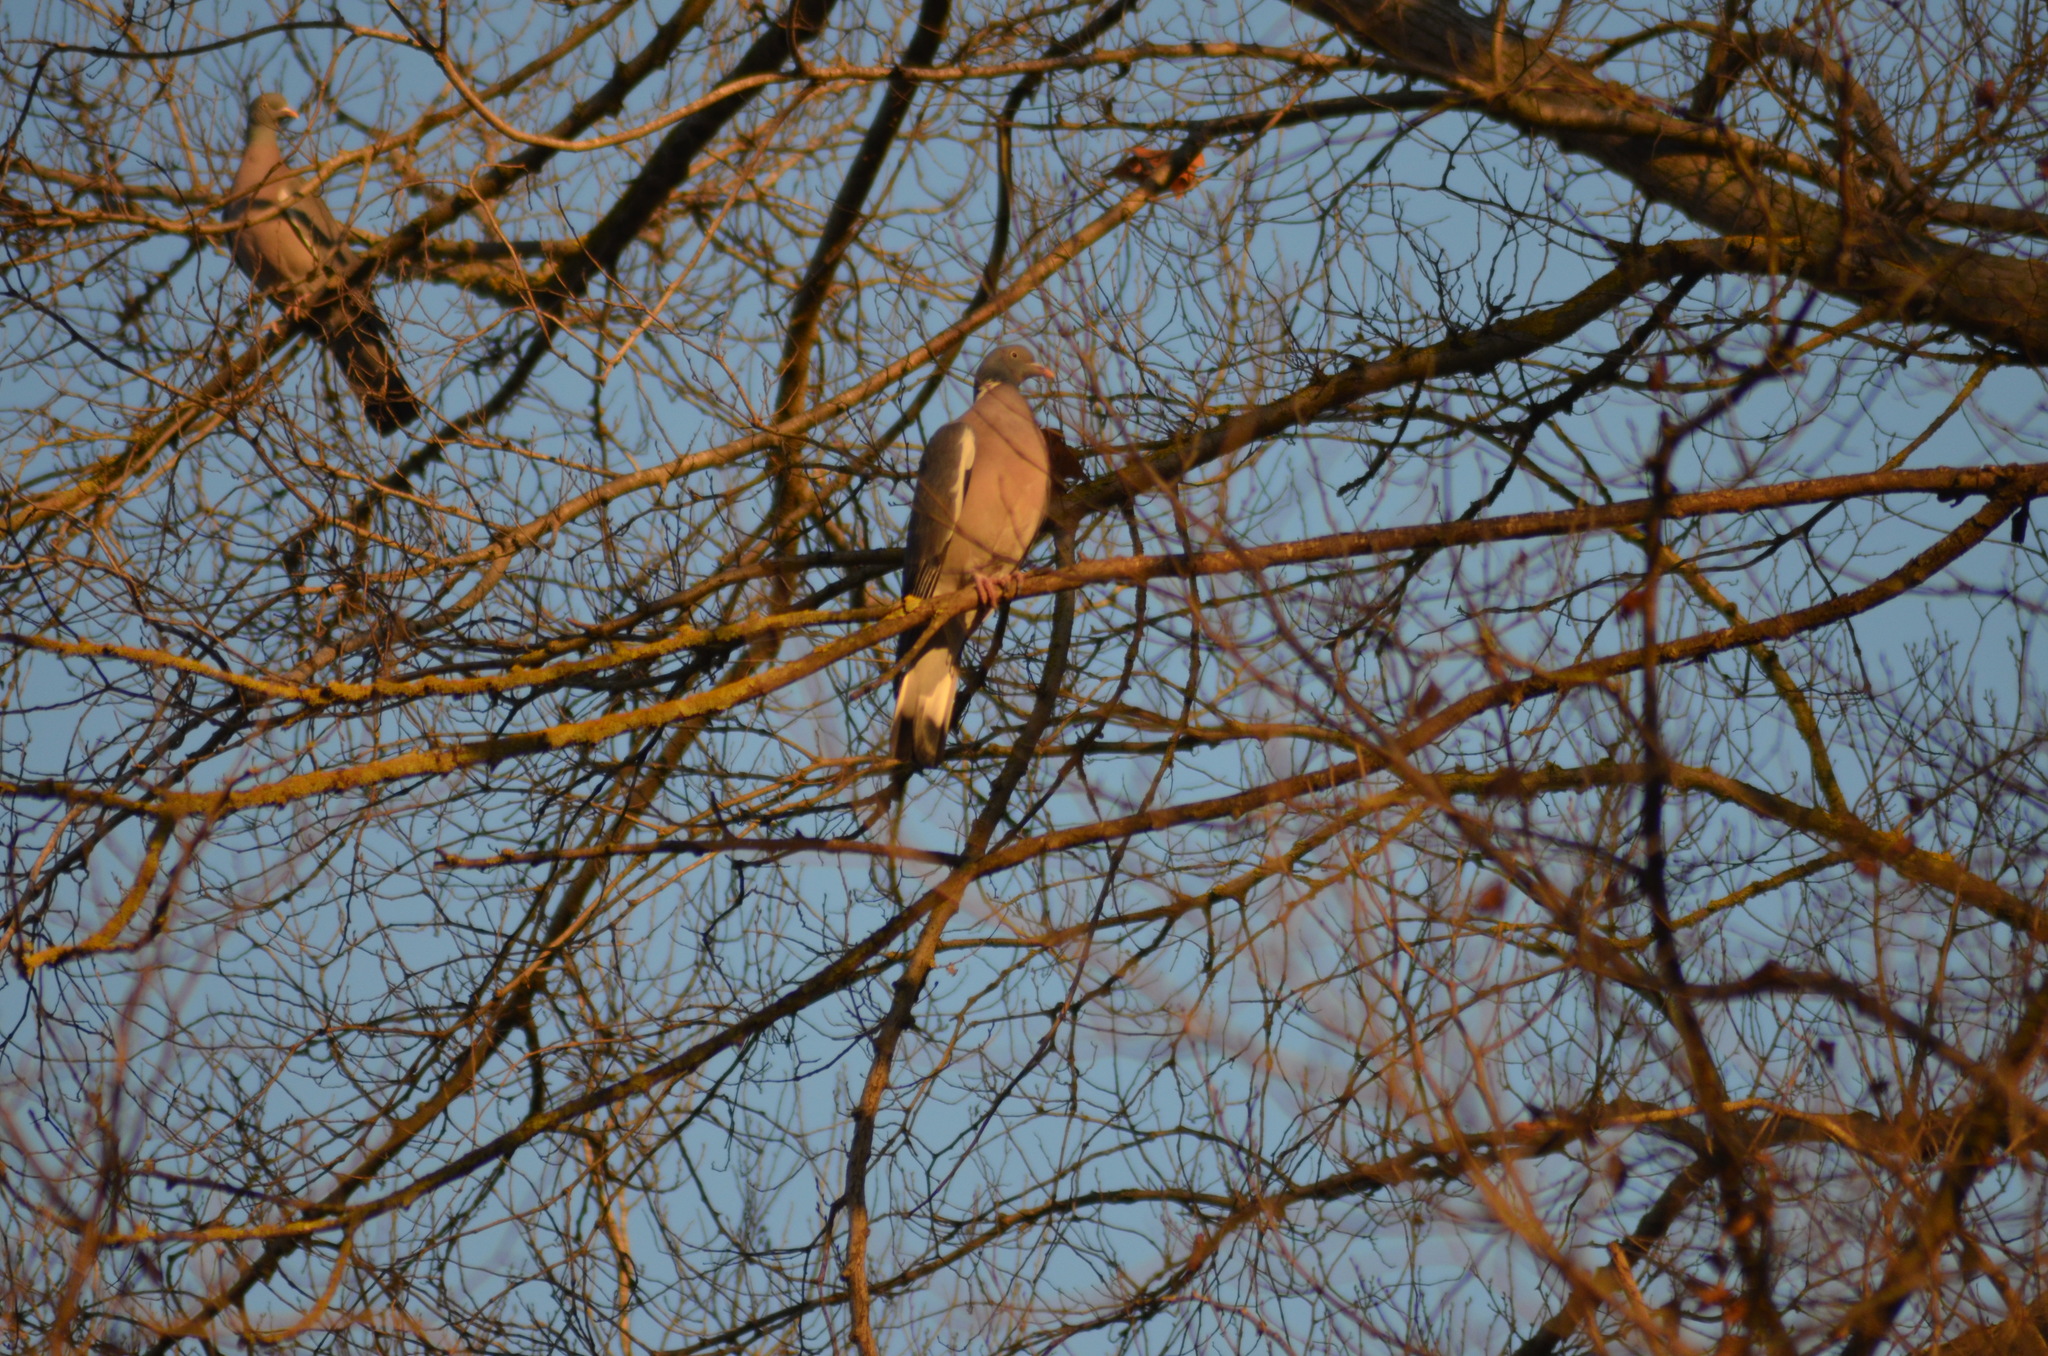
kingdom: Animalia
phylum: Chordata
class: Aves
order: Columbiformes
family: Columbidae
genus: Columba
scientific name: Columba palumbus
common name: Common wood pigeon
